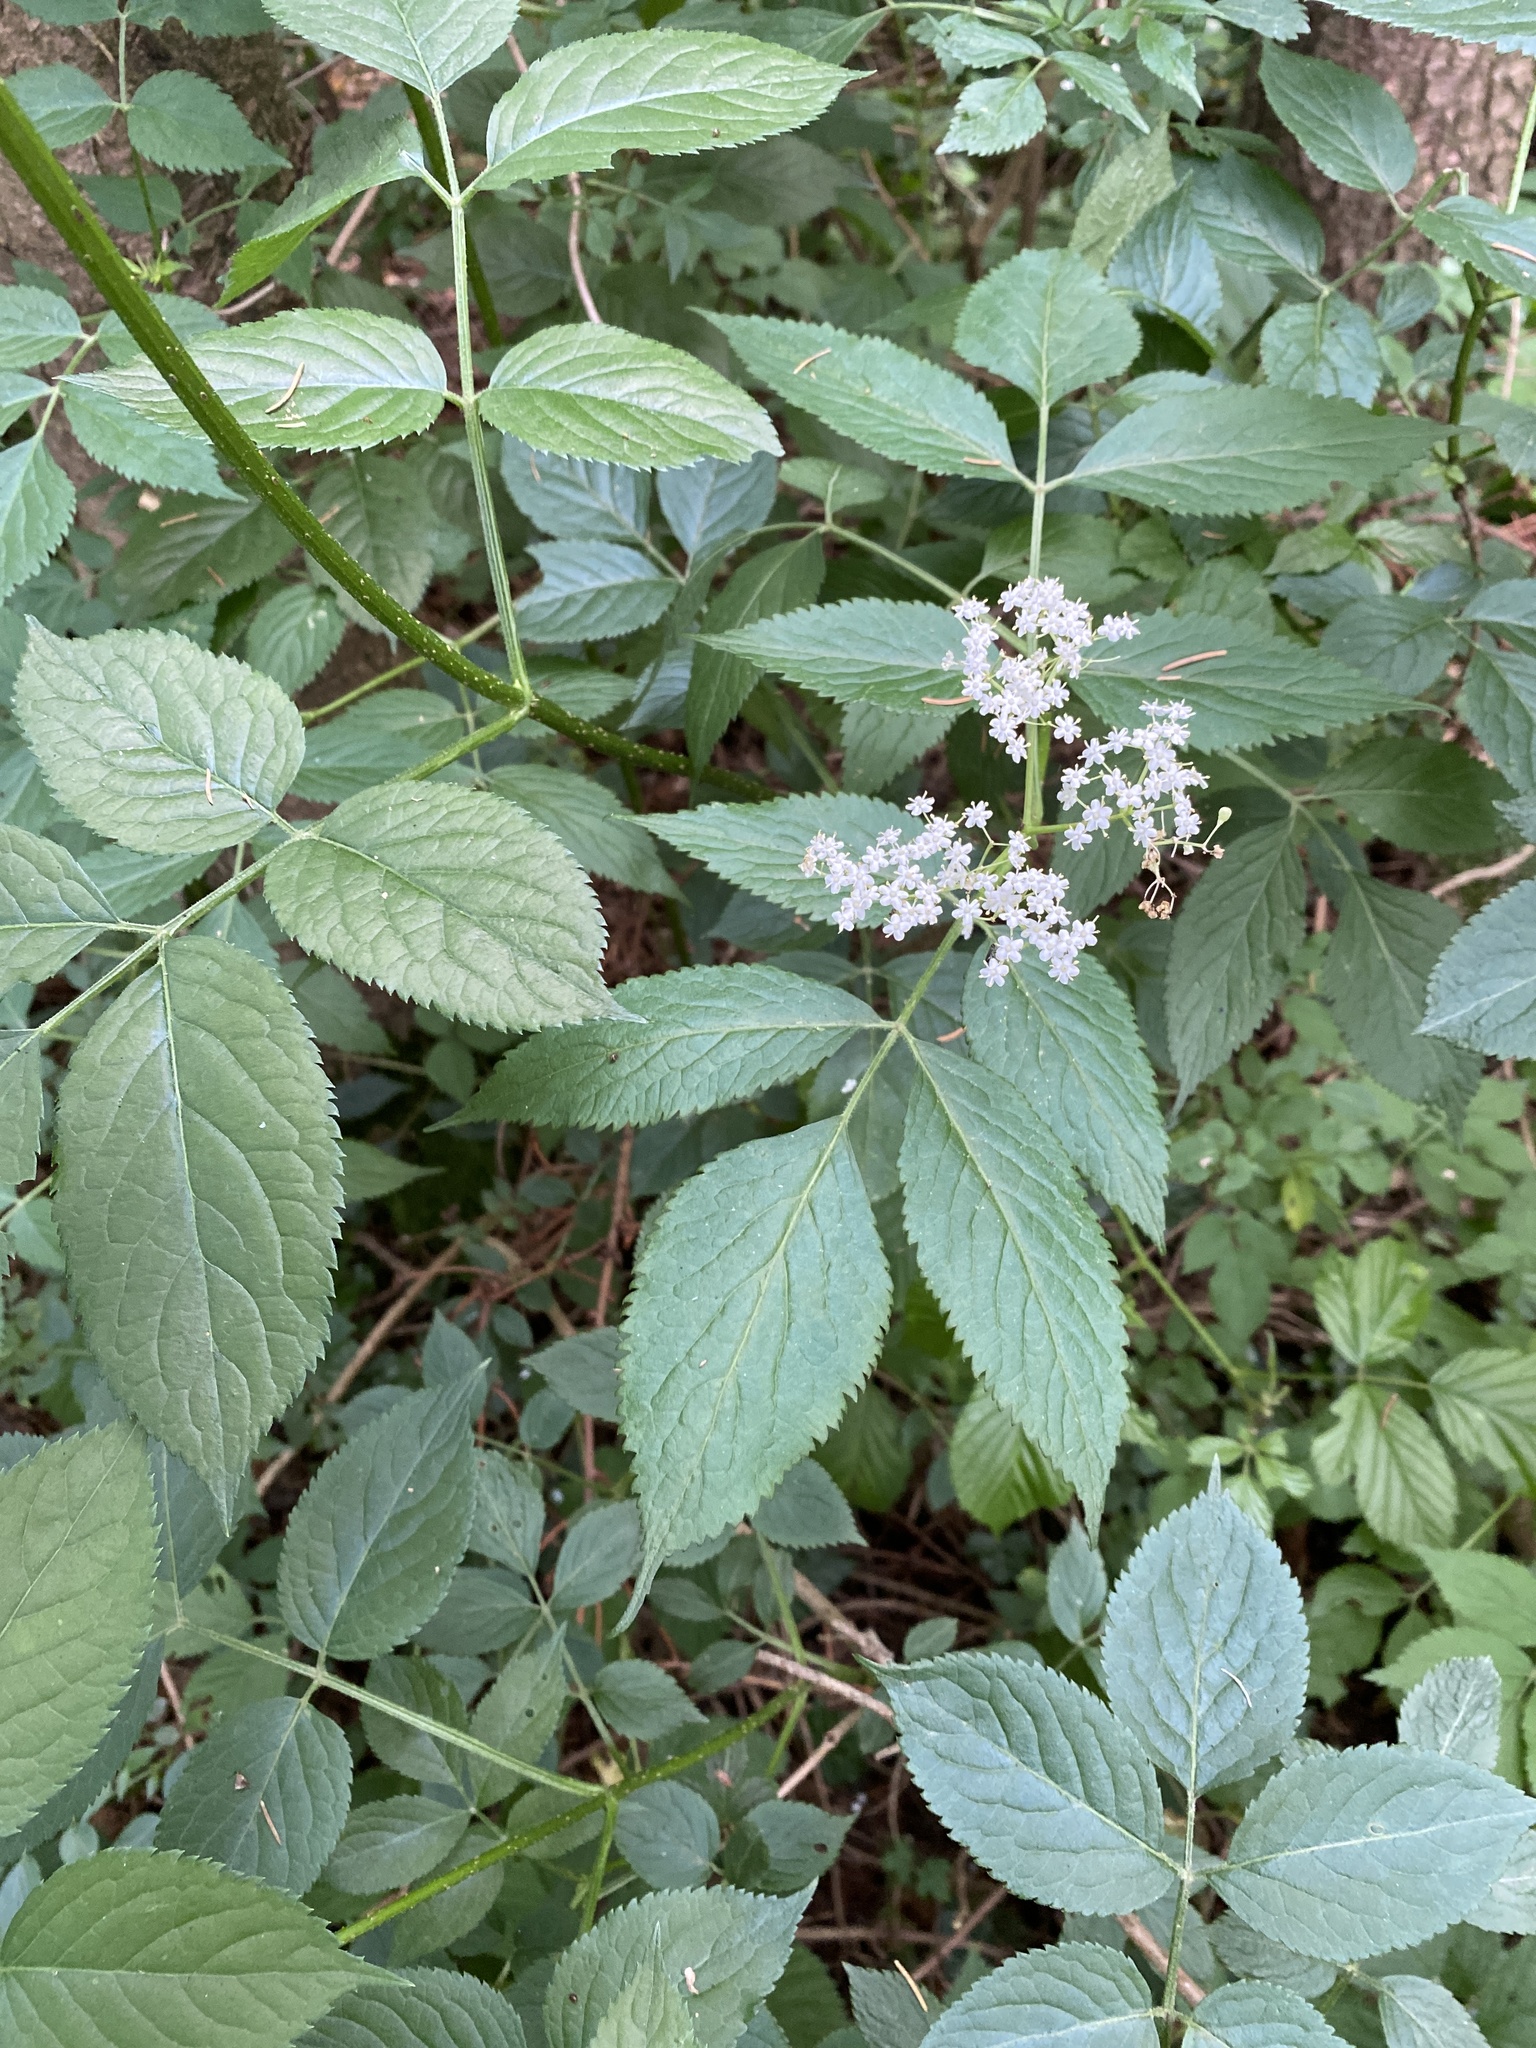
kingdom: Plantae
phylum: Tracheophyta
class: Magnoliopsida
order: Dipsacales
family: Viburnaceae
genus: Sambucus
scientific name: Sambucus nigra
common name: Elder
